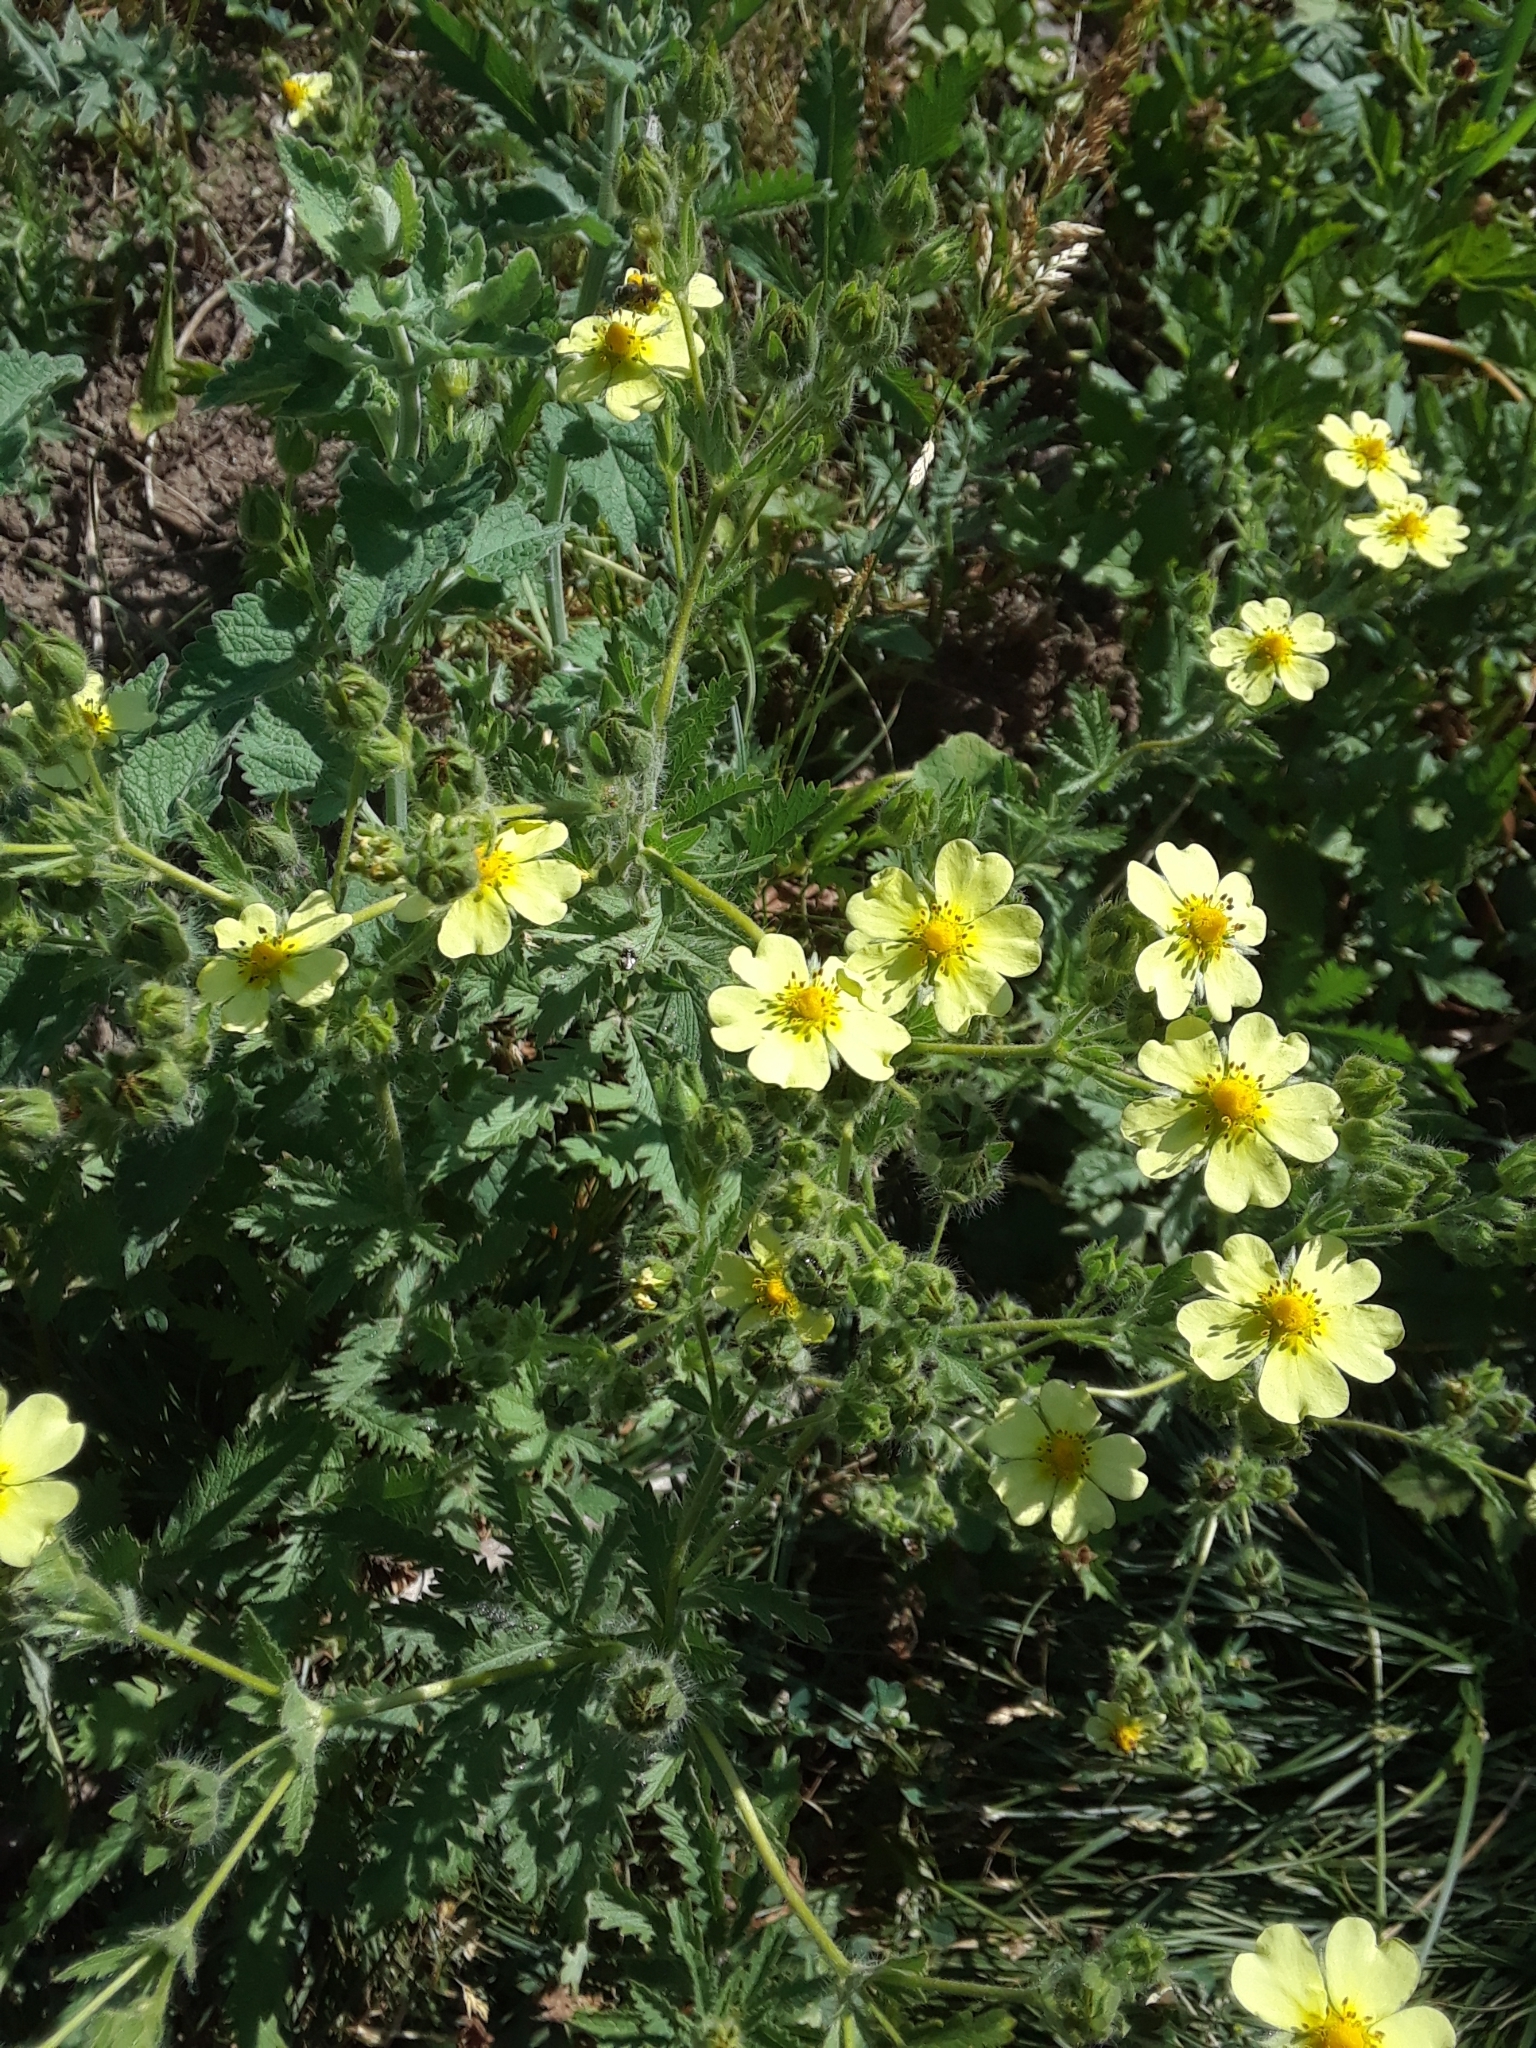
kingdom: Plantae
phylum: Tracheophyta
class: Magnoliopsida
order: Rosales
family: Rosaceae
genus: Potentilla
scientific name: Potentilla recta
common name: Sulphur cinquefoil
